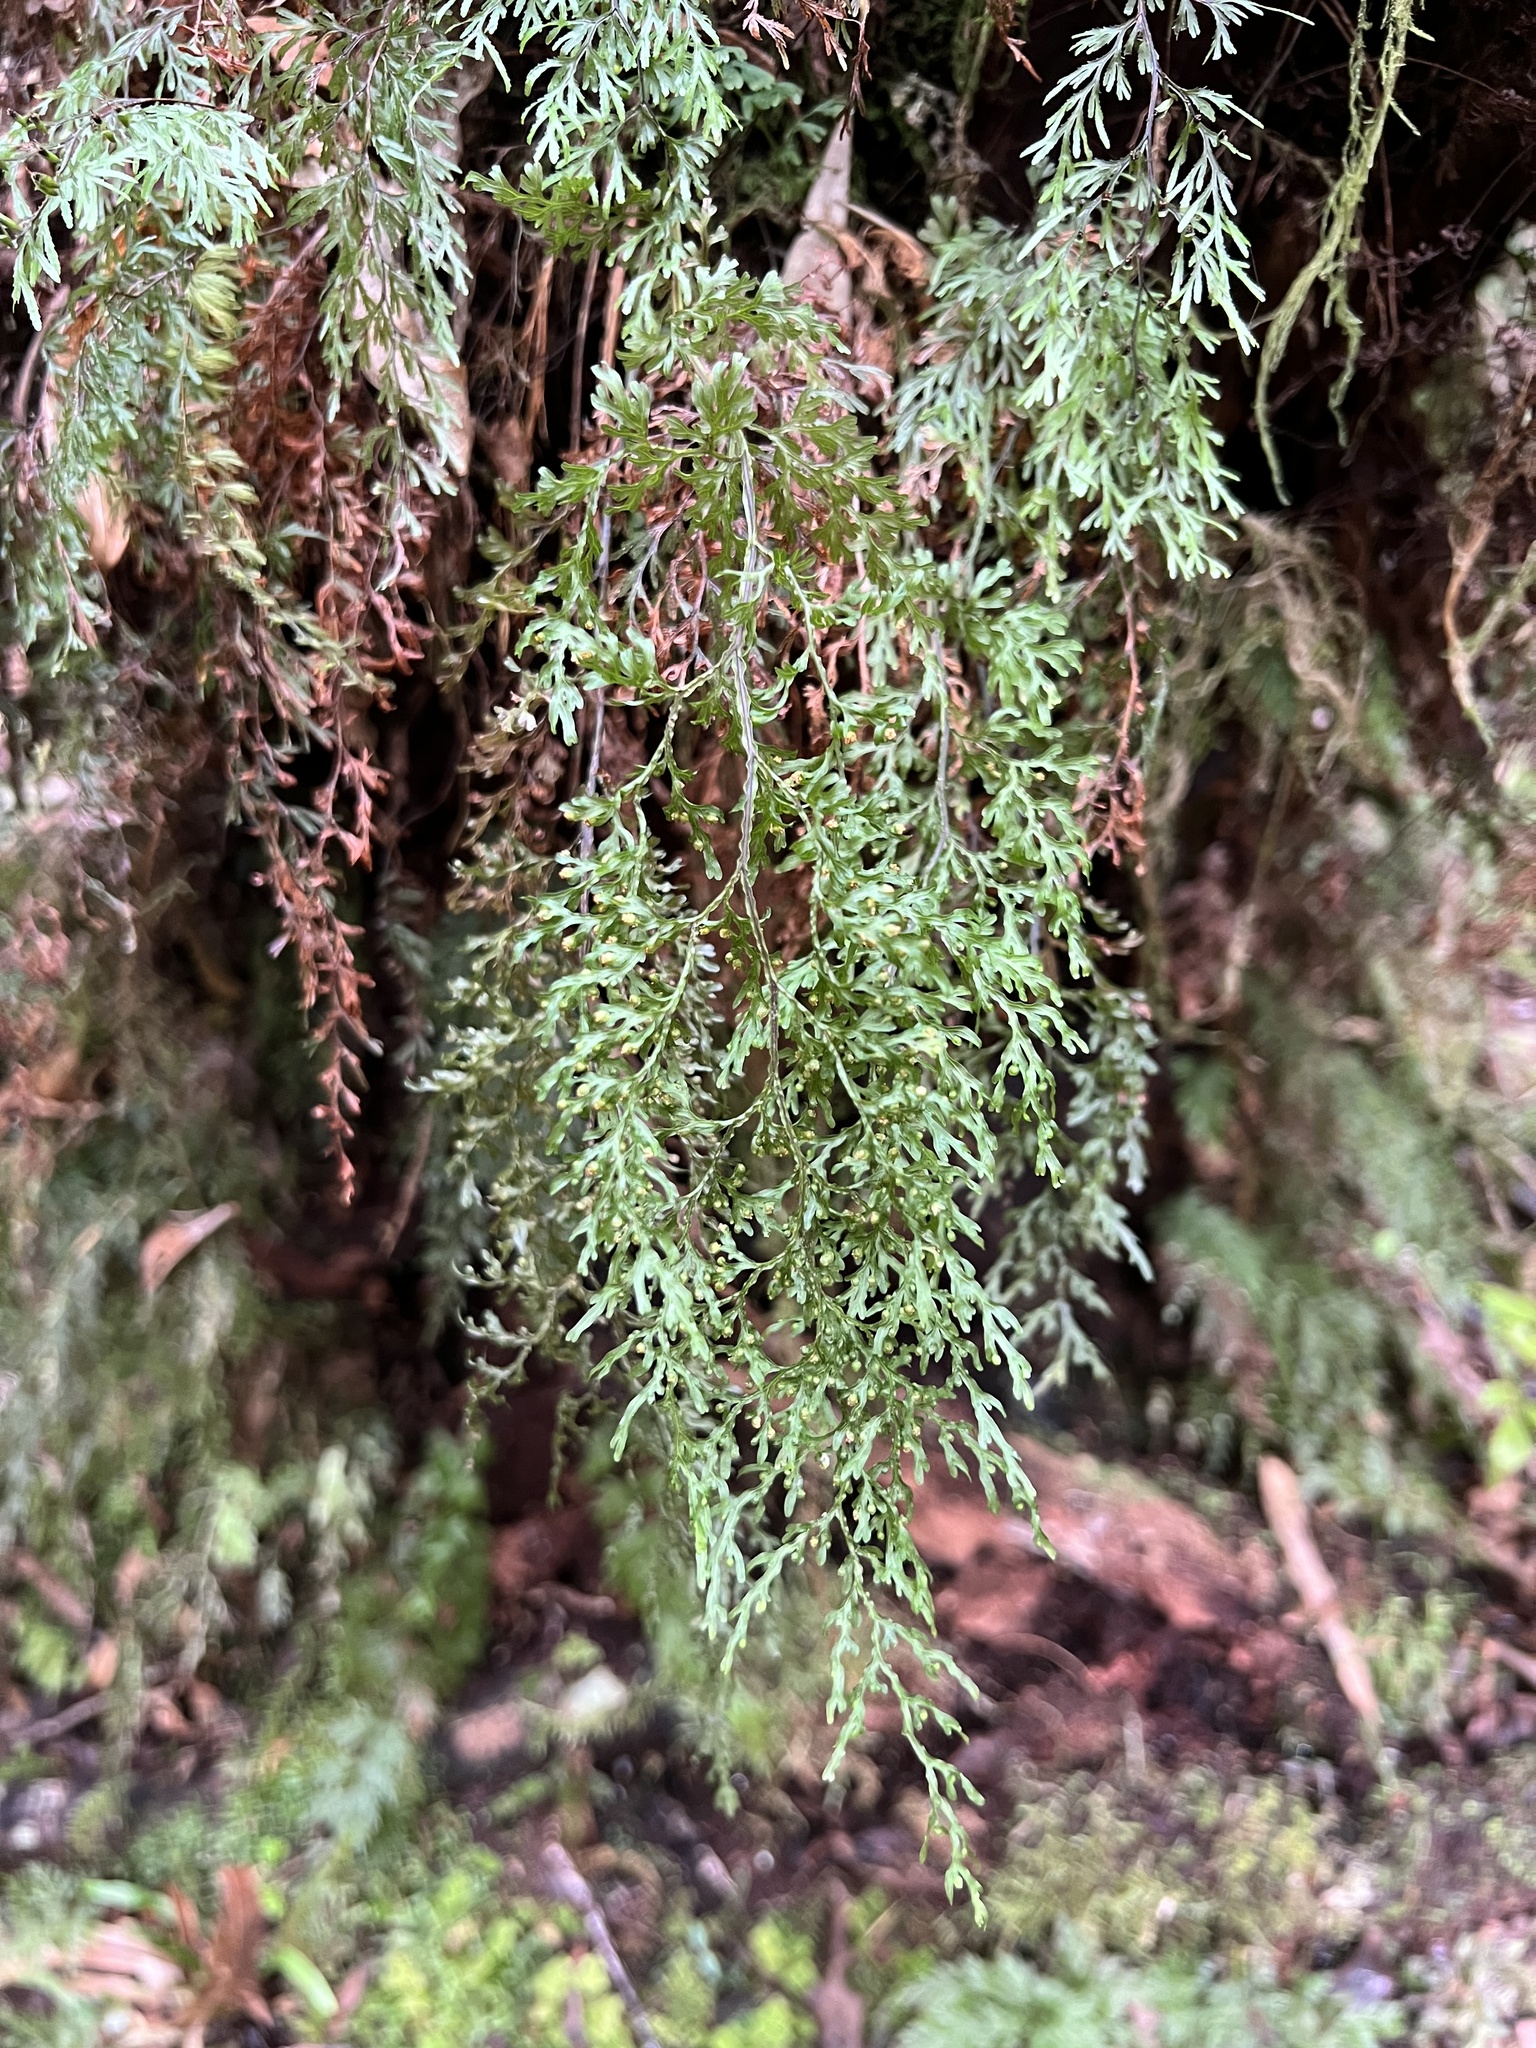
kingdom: Plantae
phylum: Tracheophyta
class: Polypodiopsida
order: Hymenophyllales
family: Hymenophyllaceae
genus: Hymenophyllum
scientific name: Hymenophyllum pulcherrimum
